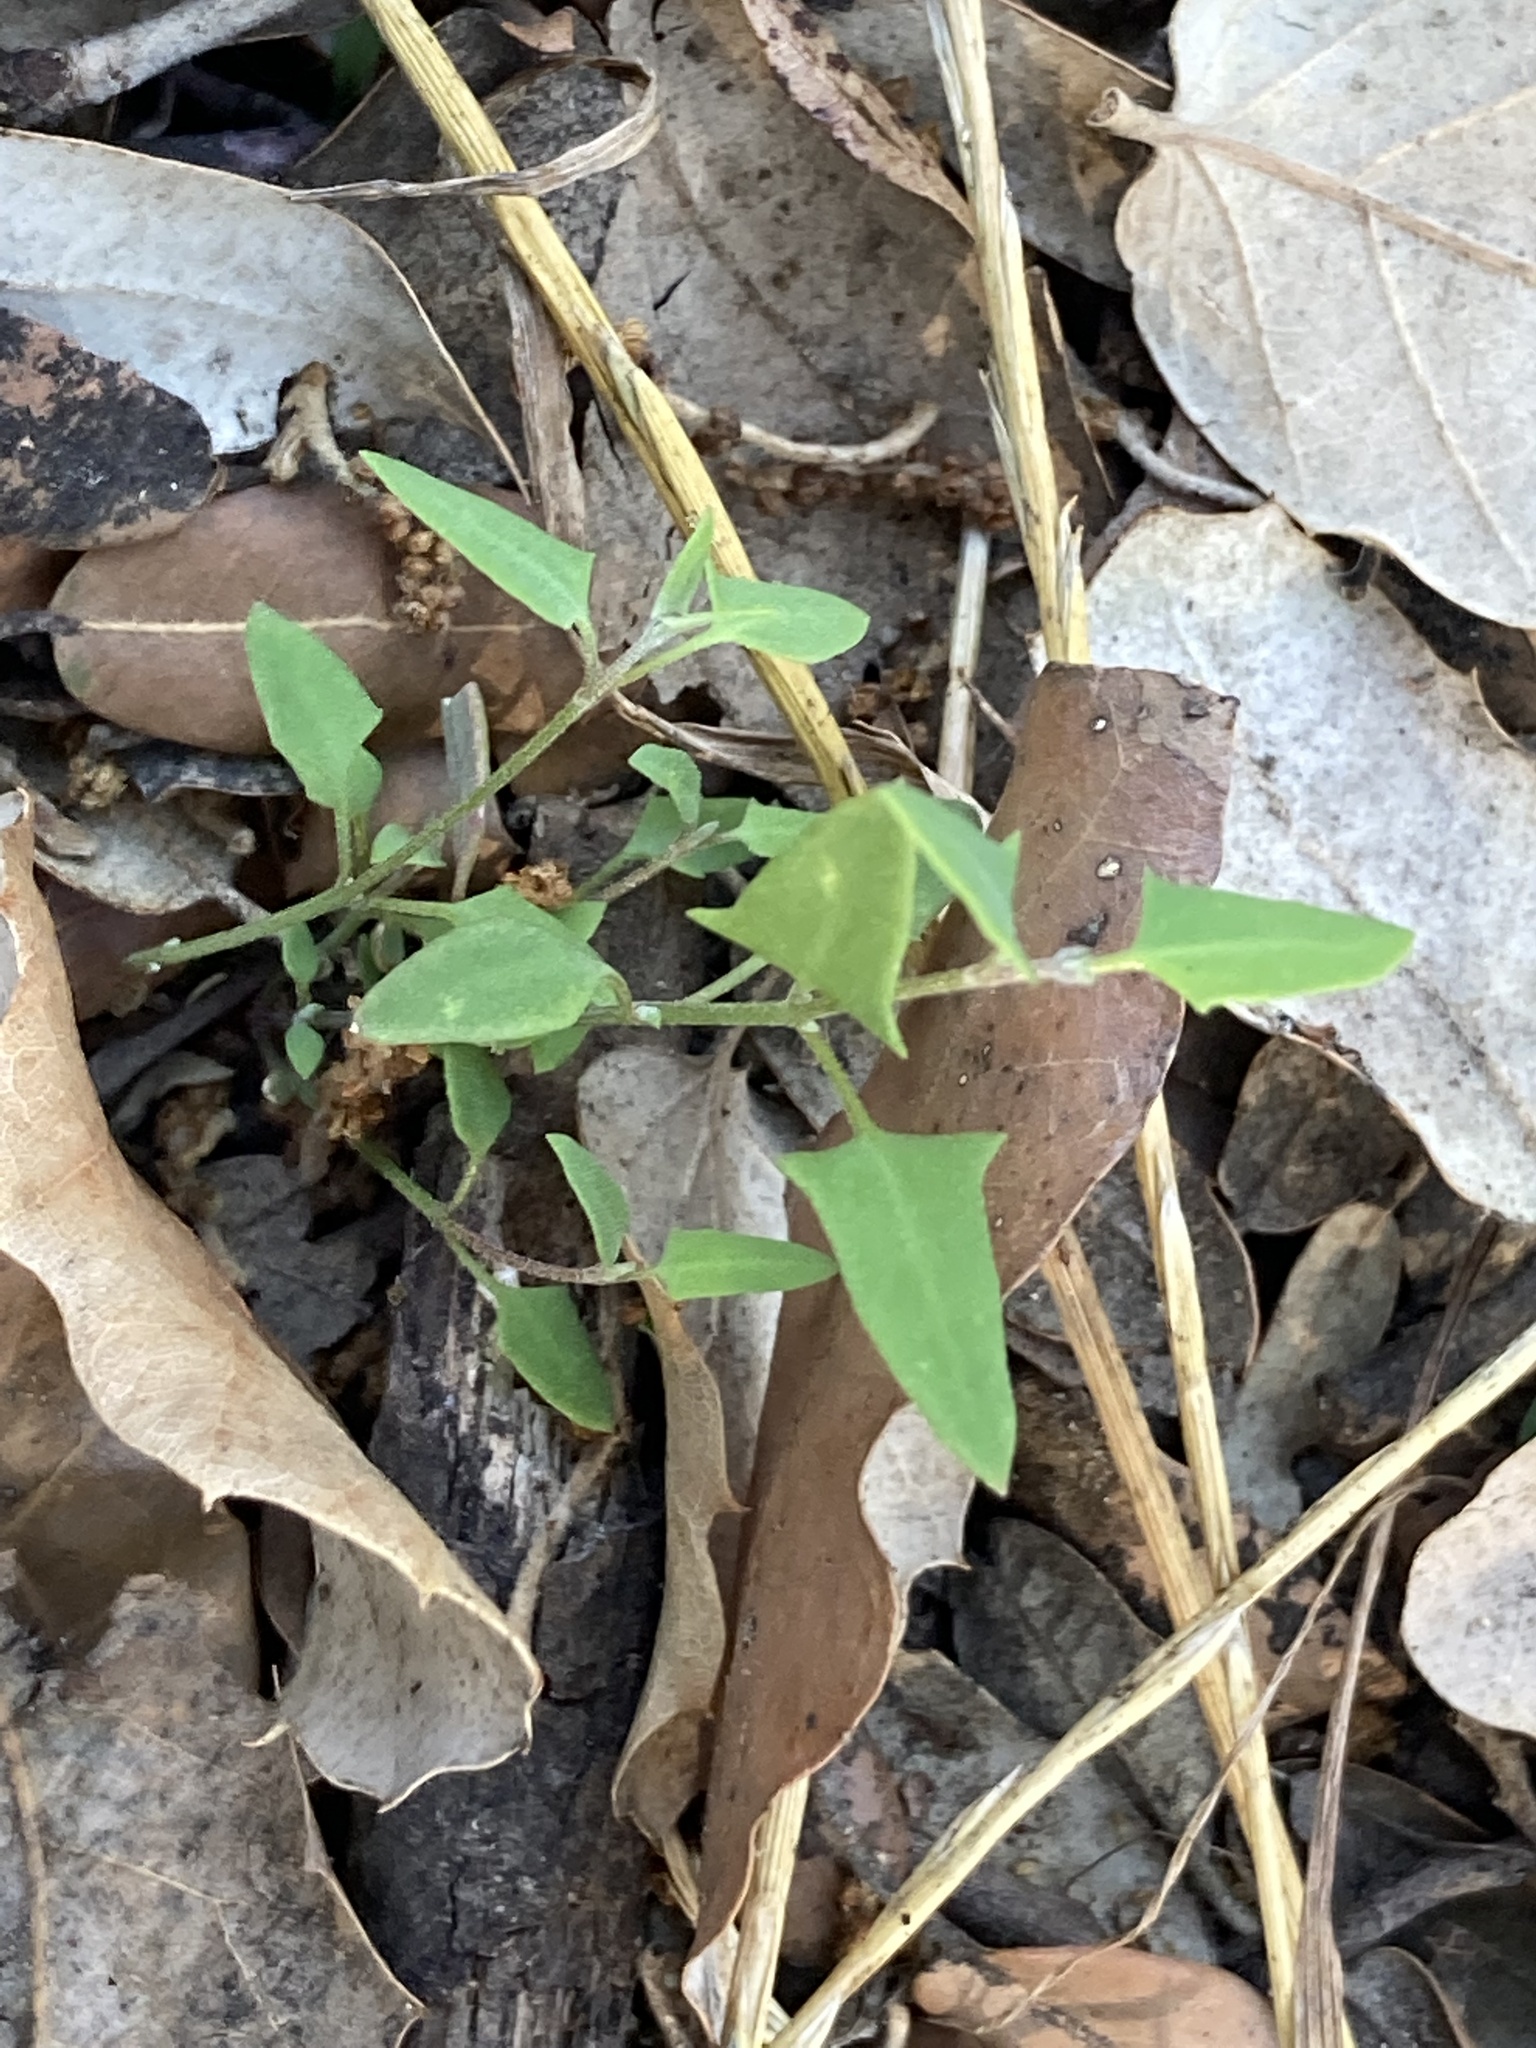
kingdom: Plantae
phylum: Tracheophyta
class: Magnoliopsida
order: Caryophyllales
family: Amaranthaceae
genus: Chenopodium
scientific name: Chenopodium nutans
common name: Climbing-saltbush
